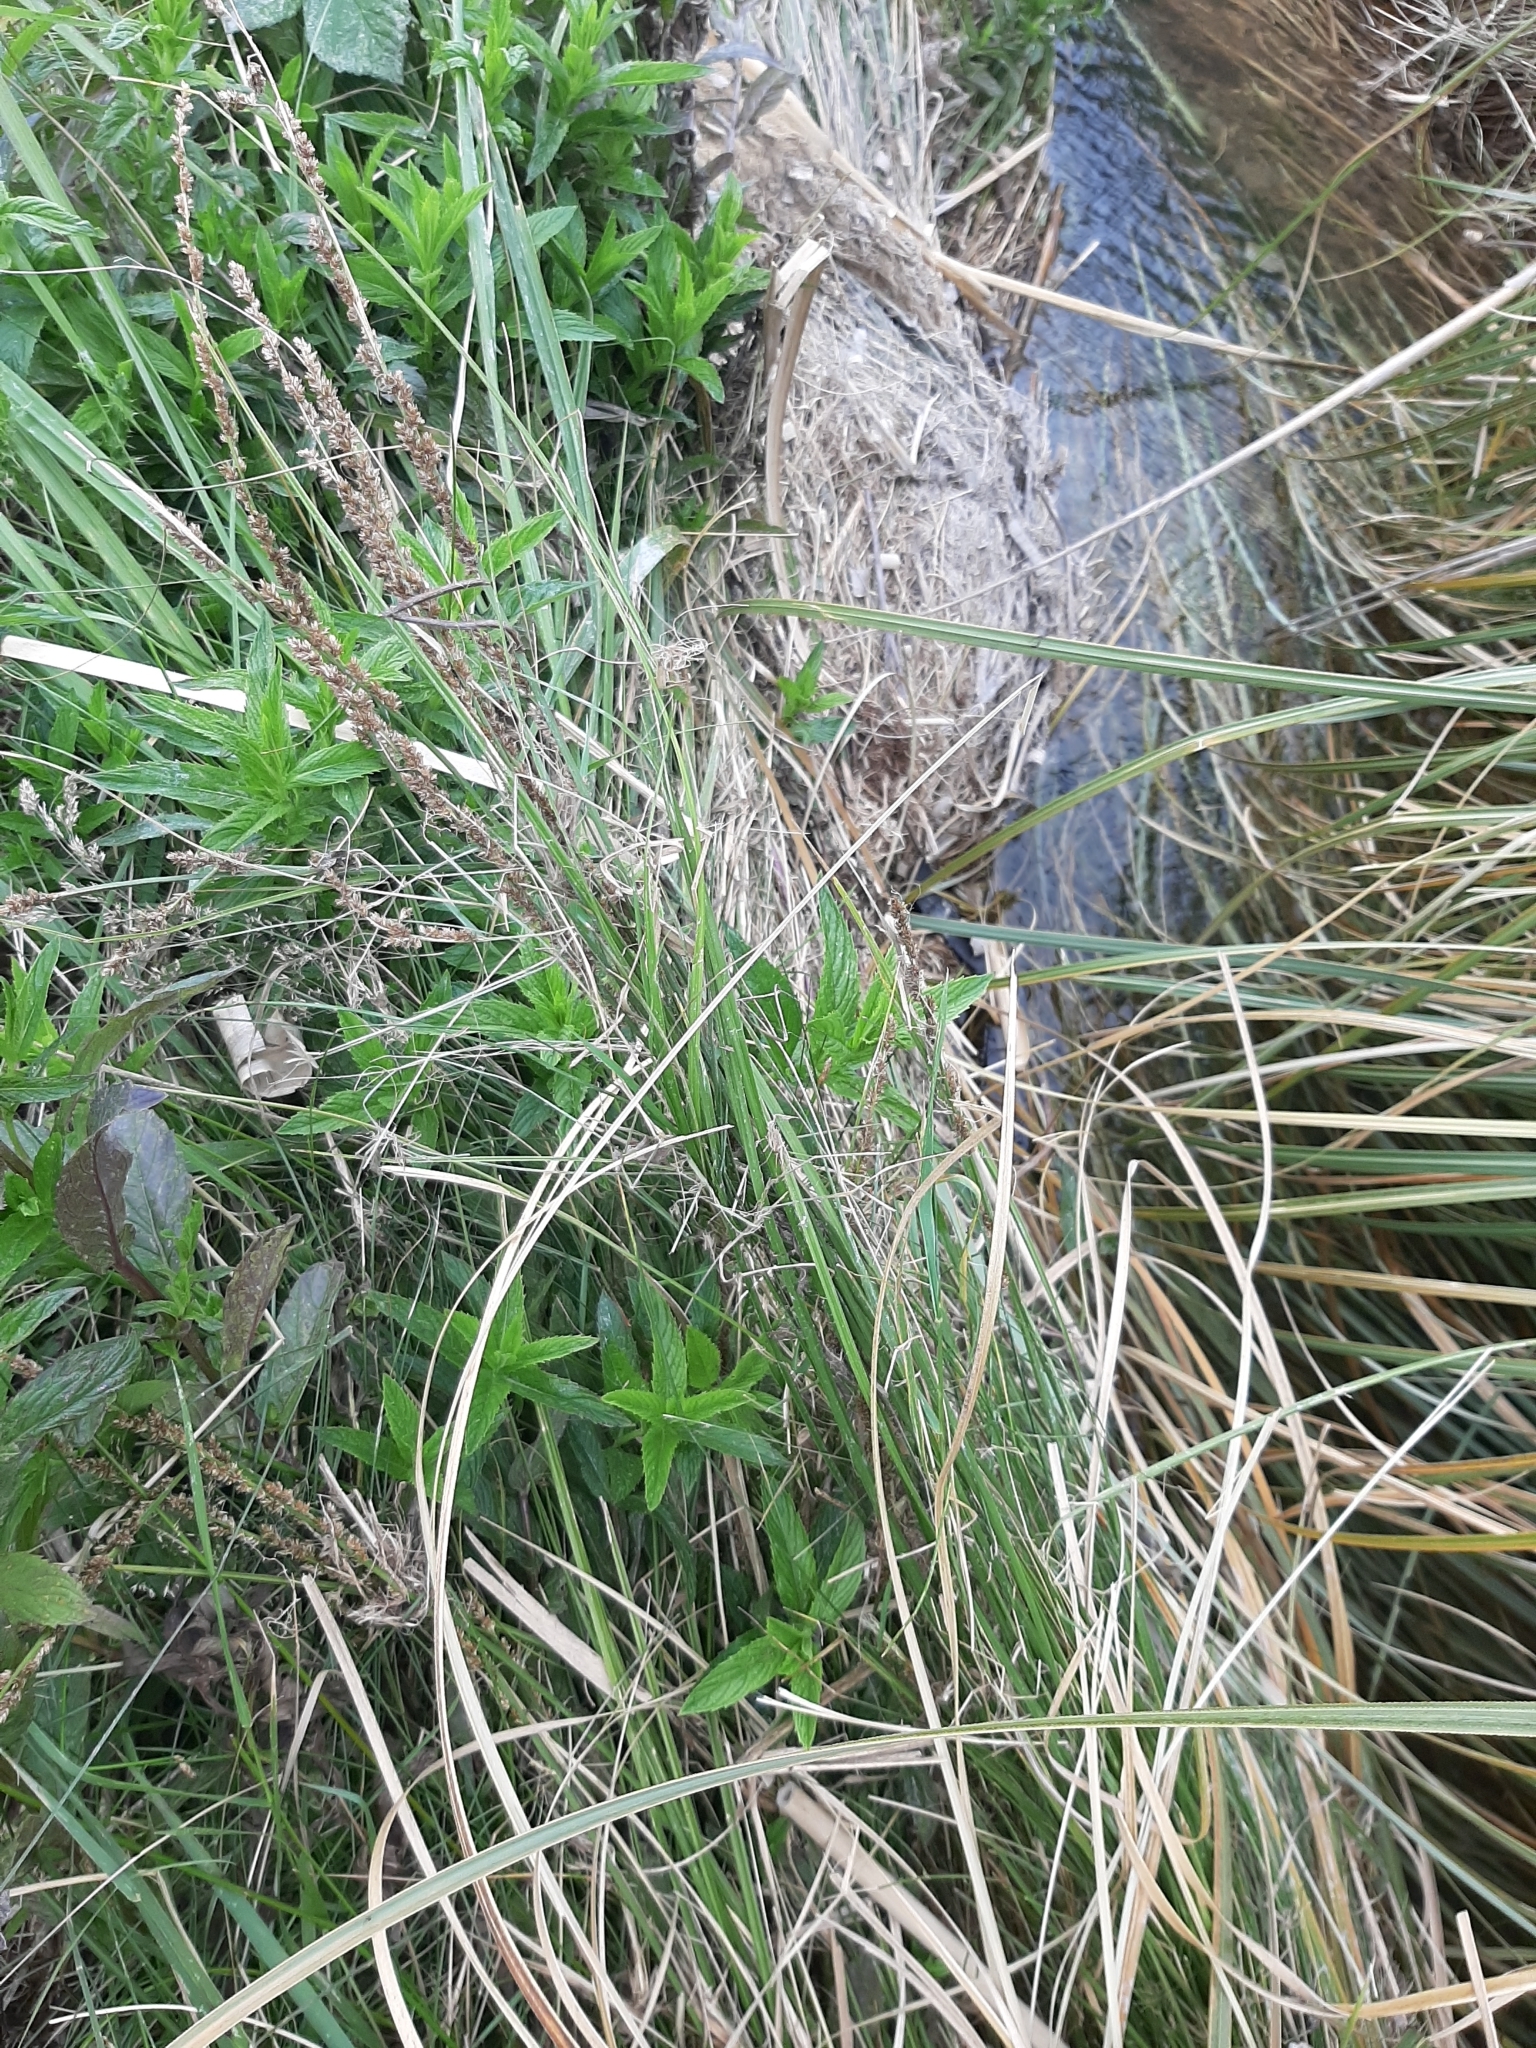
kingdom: Plantae
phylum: Tracheophyta
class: Liliopsida
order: Poales
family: Cyperaceae
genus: Carex
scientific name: Carex virgata
